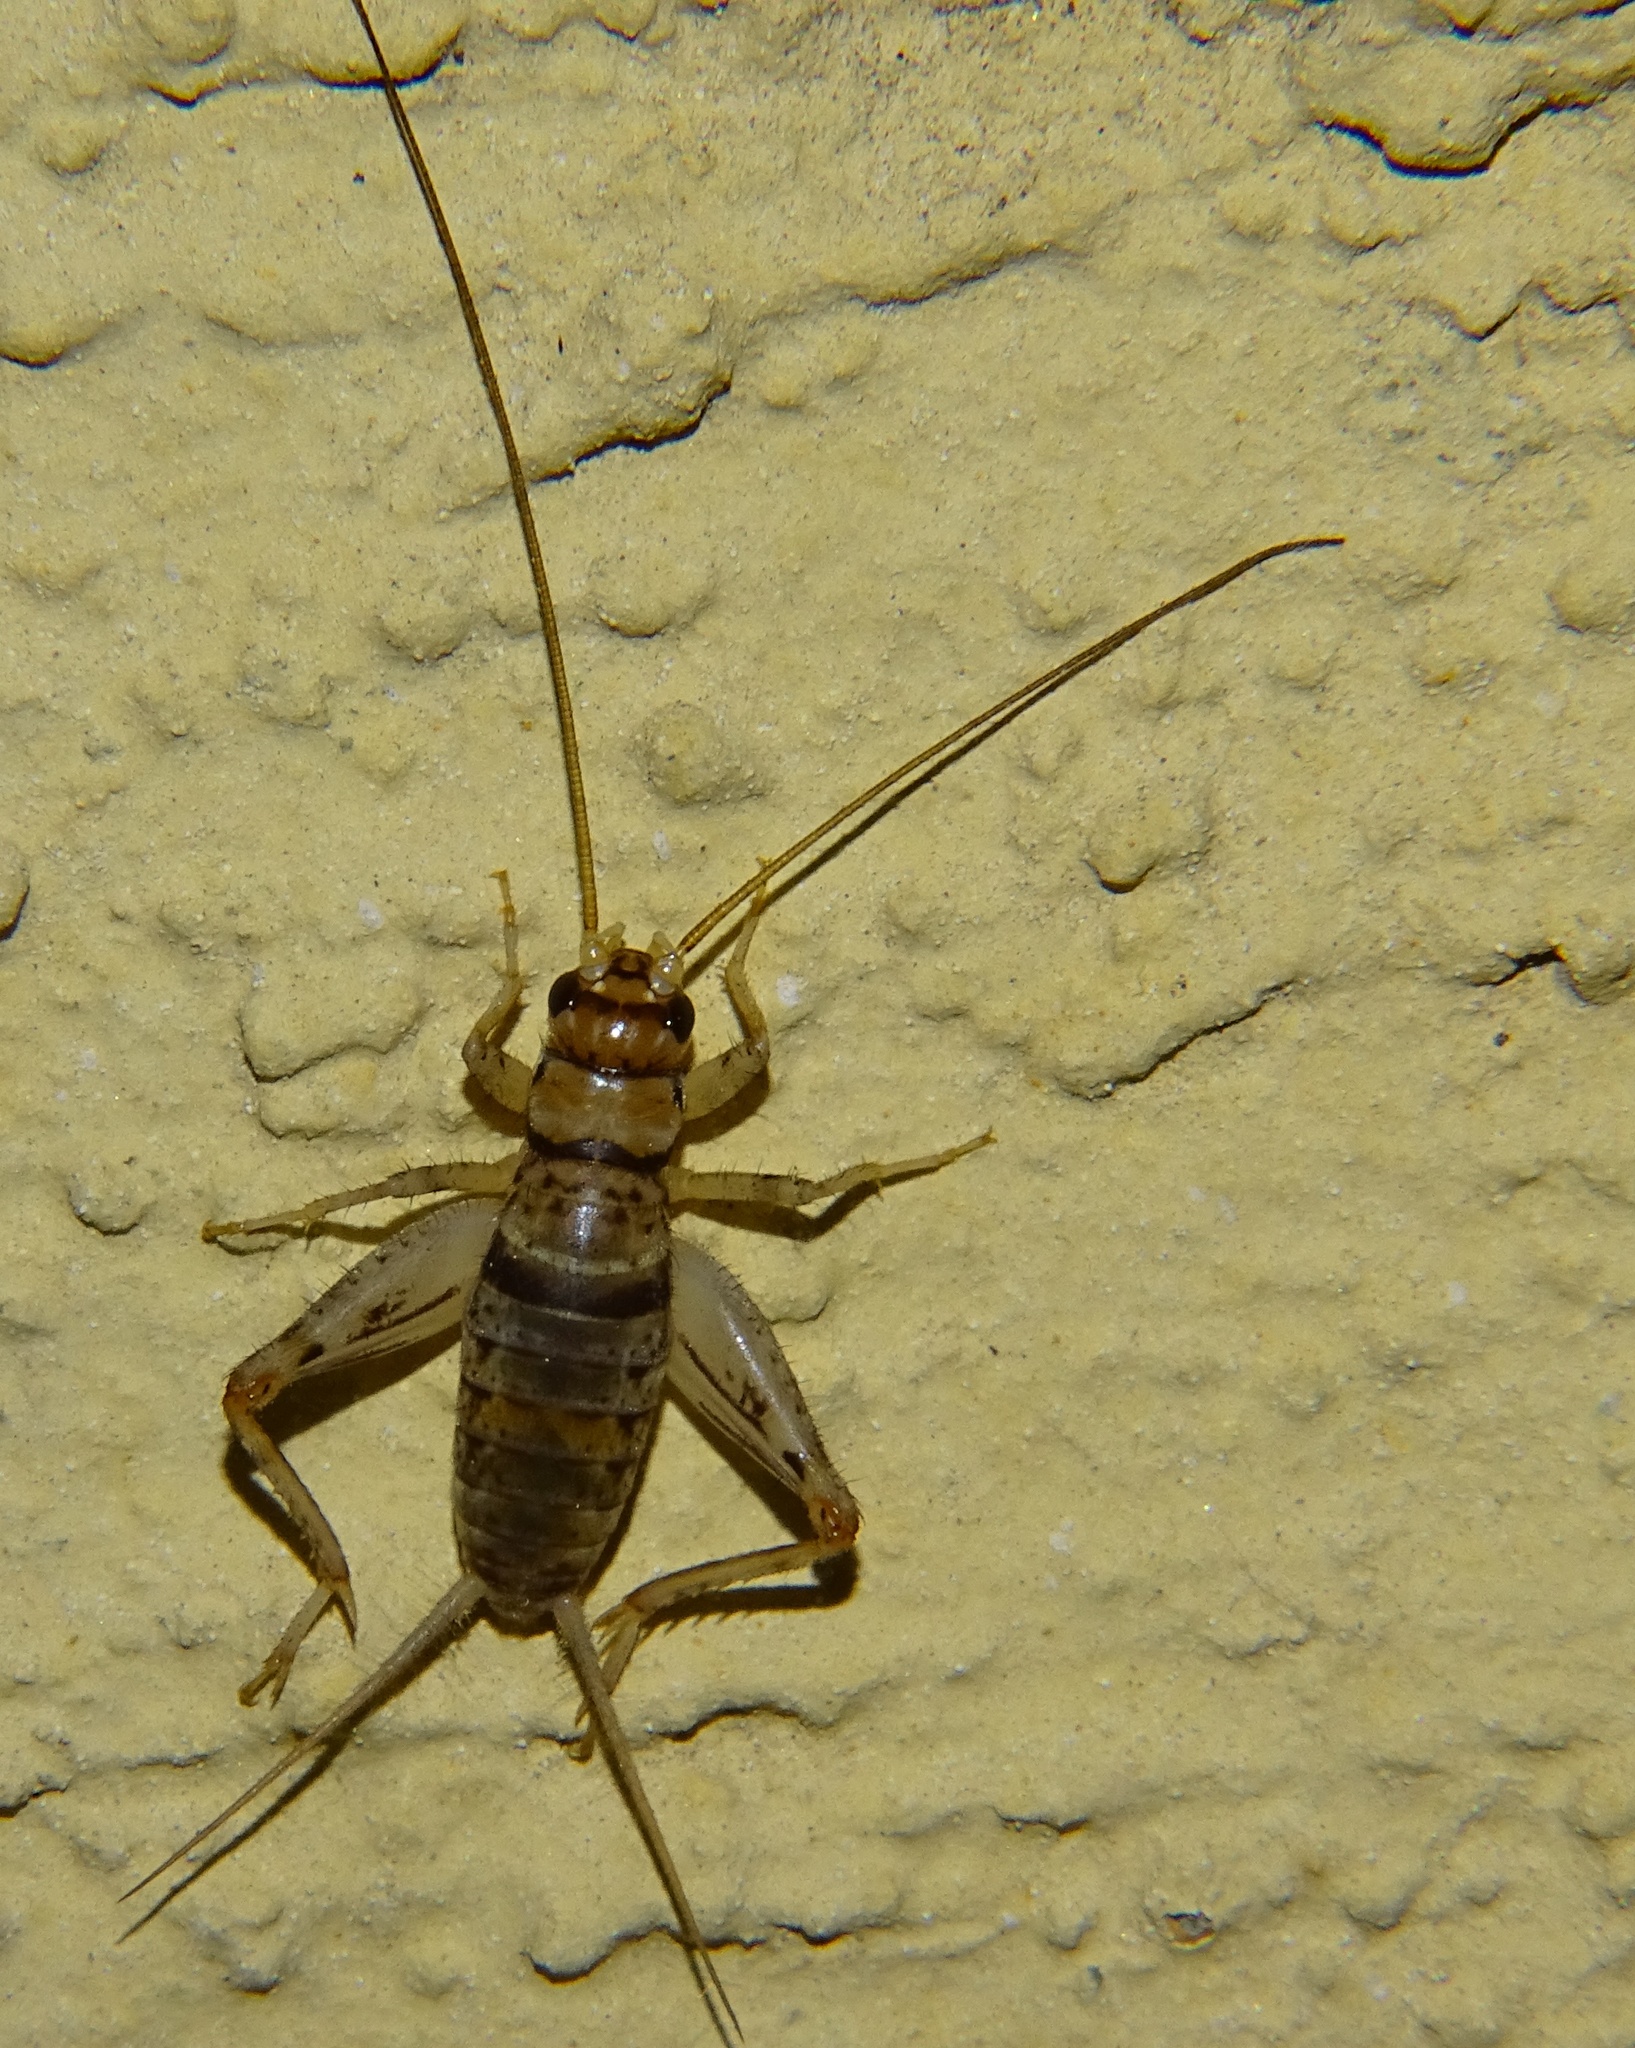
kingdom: Animalia
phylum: Arthropoda
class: Insecta
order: Orthoptera
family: Gryllidae
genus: Gryllodes
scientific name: Gryllodes sigillatus
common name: Tropical house cricket
